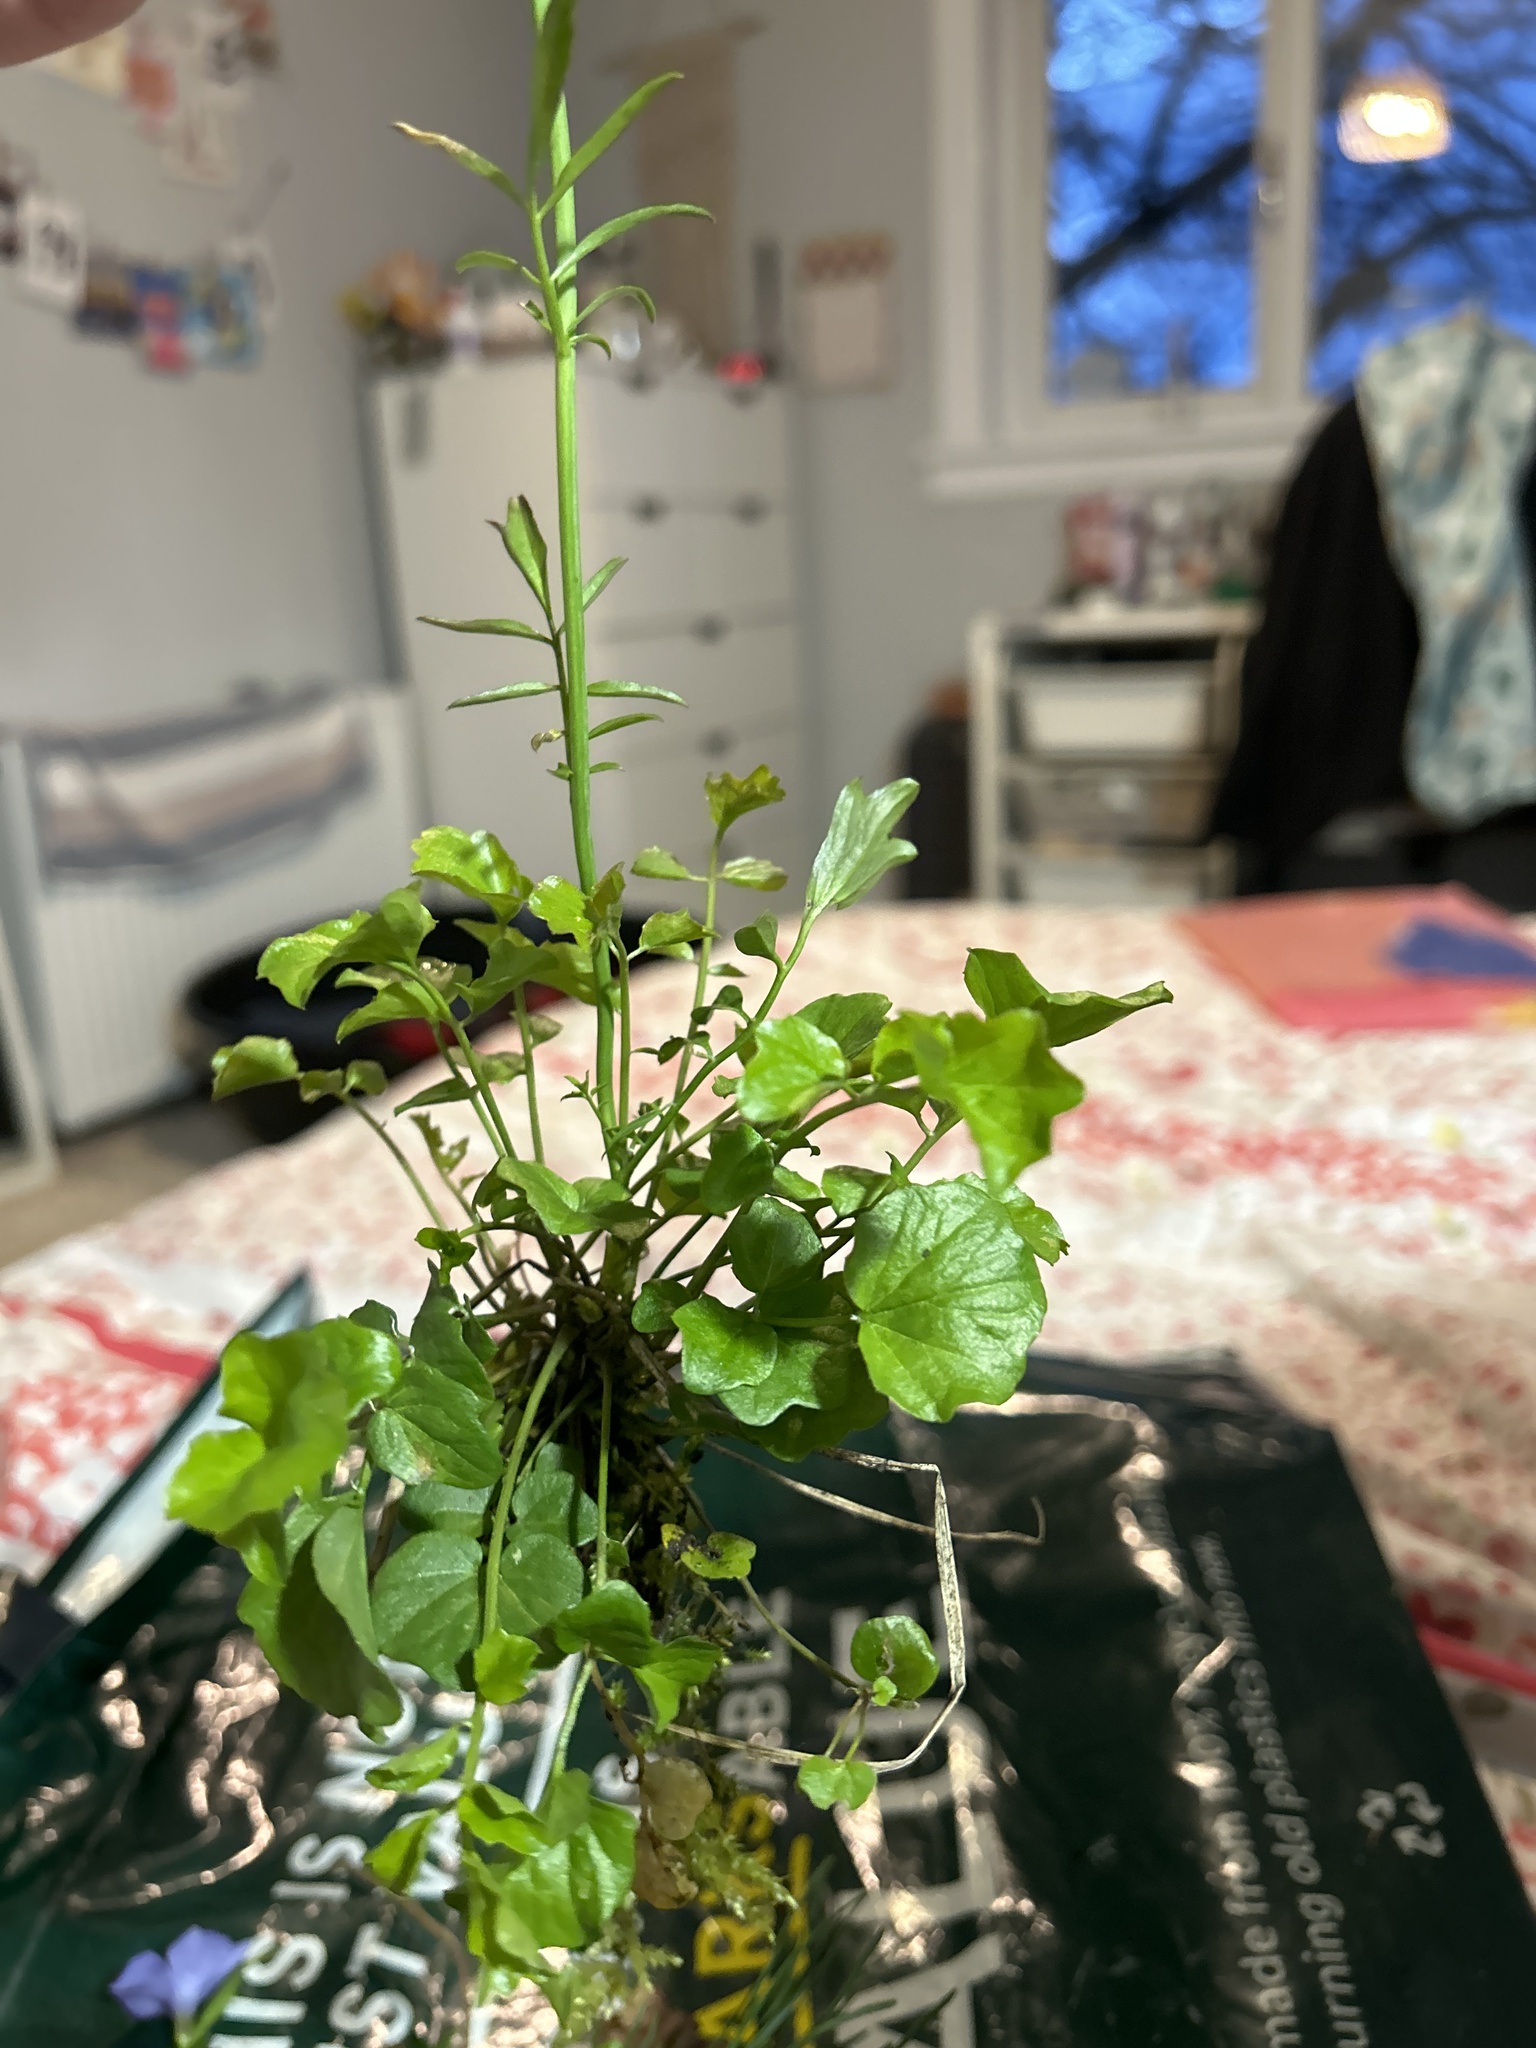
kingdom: Plantae
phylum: Tracheophyta
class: Magnoliopsida
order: Brassicales
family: Brassicaceae
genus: Cardamine
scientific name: Cardamine pratensis
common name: Cuckoo flower
